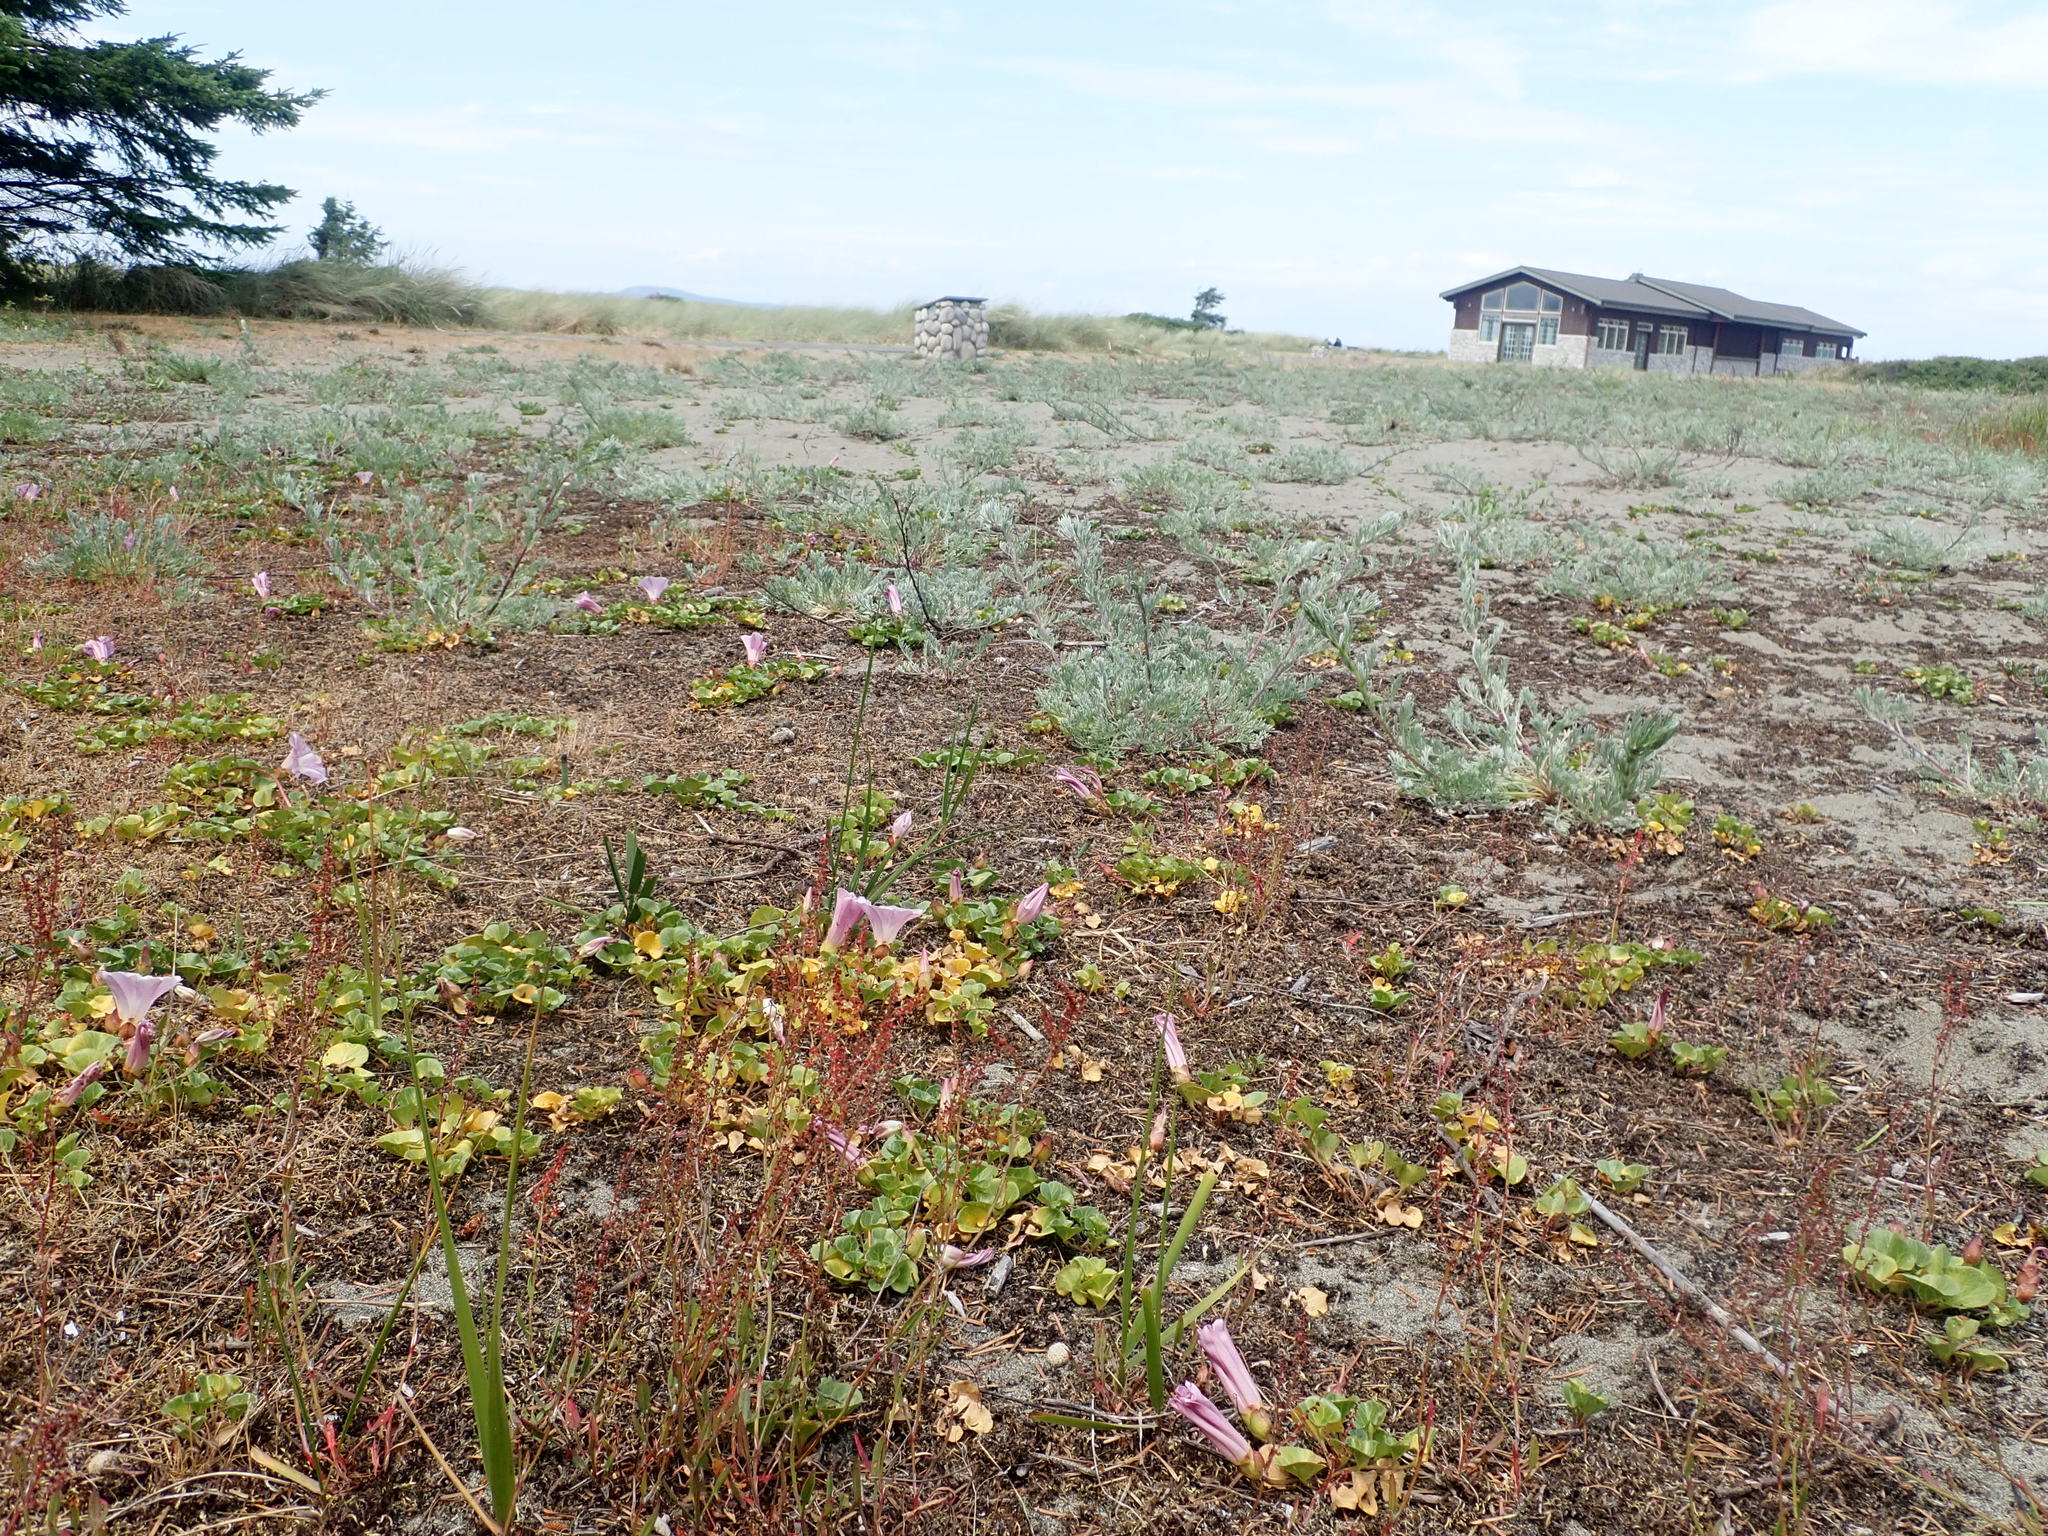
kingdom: Plantae
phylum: Tracheophyta
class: Magnoliopsida
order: Solanales
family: Convolvulaceae
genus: Calystegia
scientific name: Calystegia soldanella
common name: Sea bindweed
